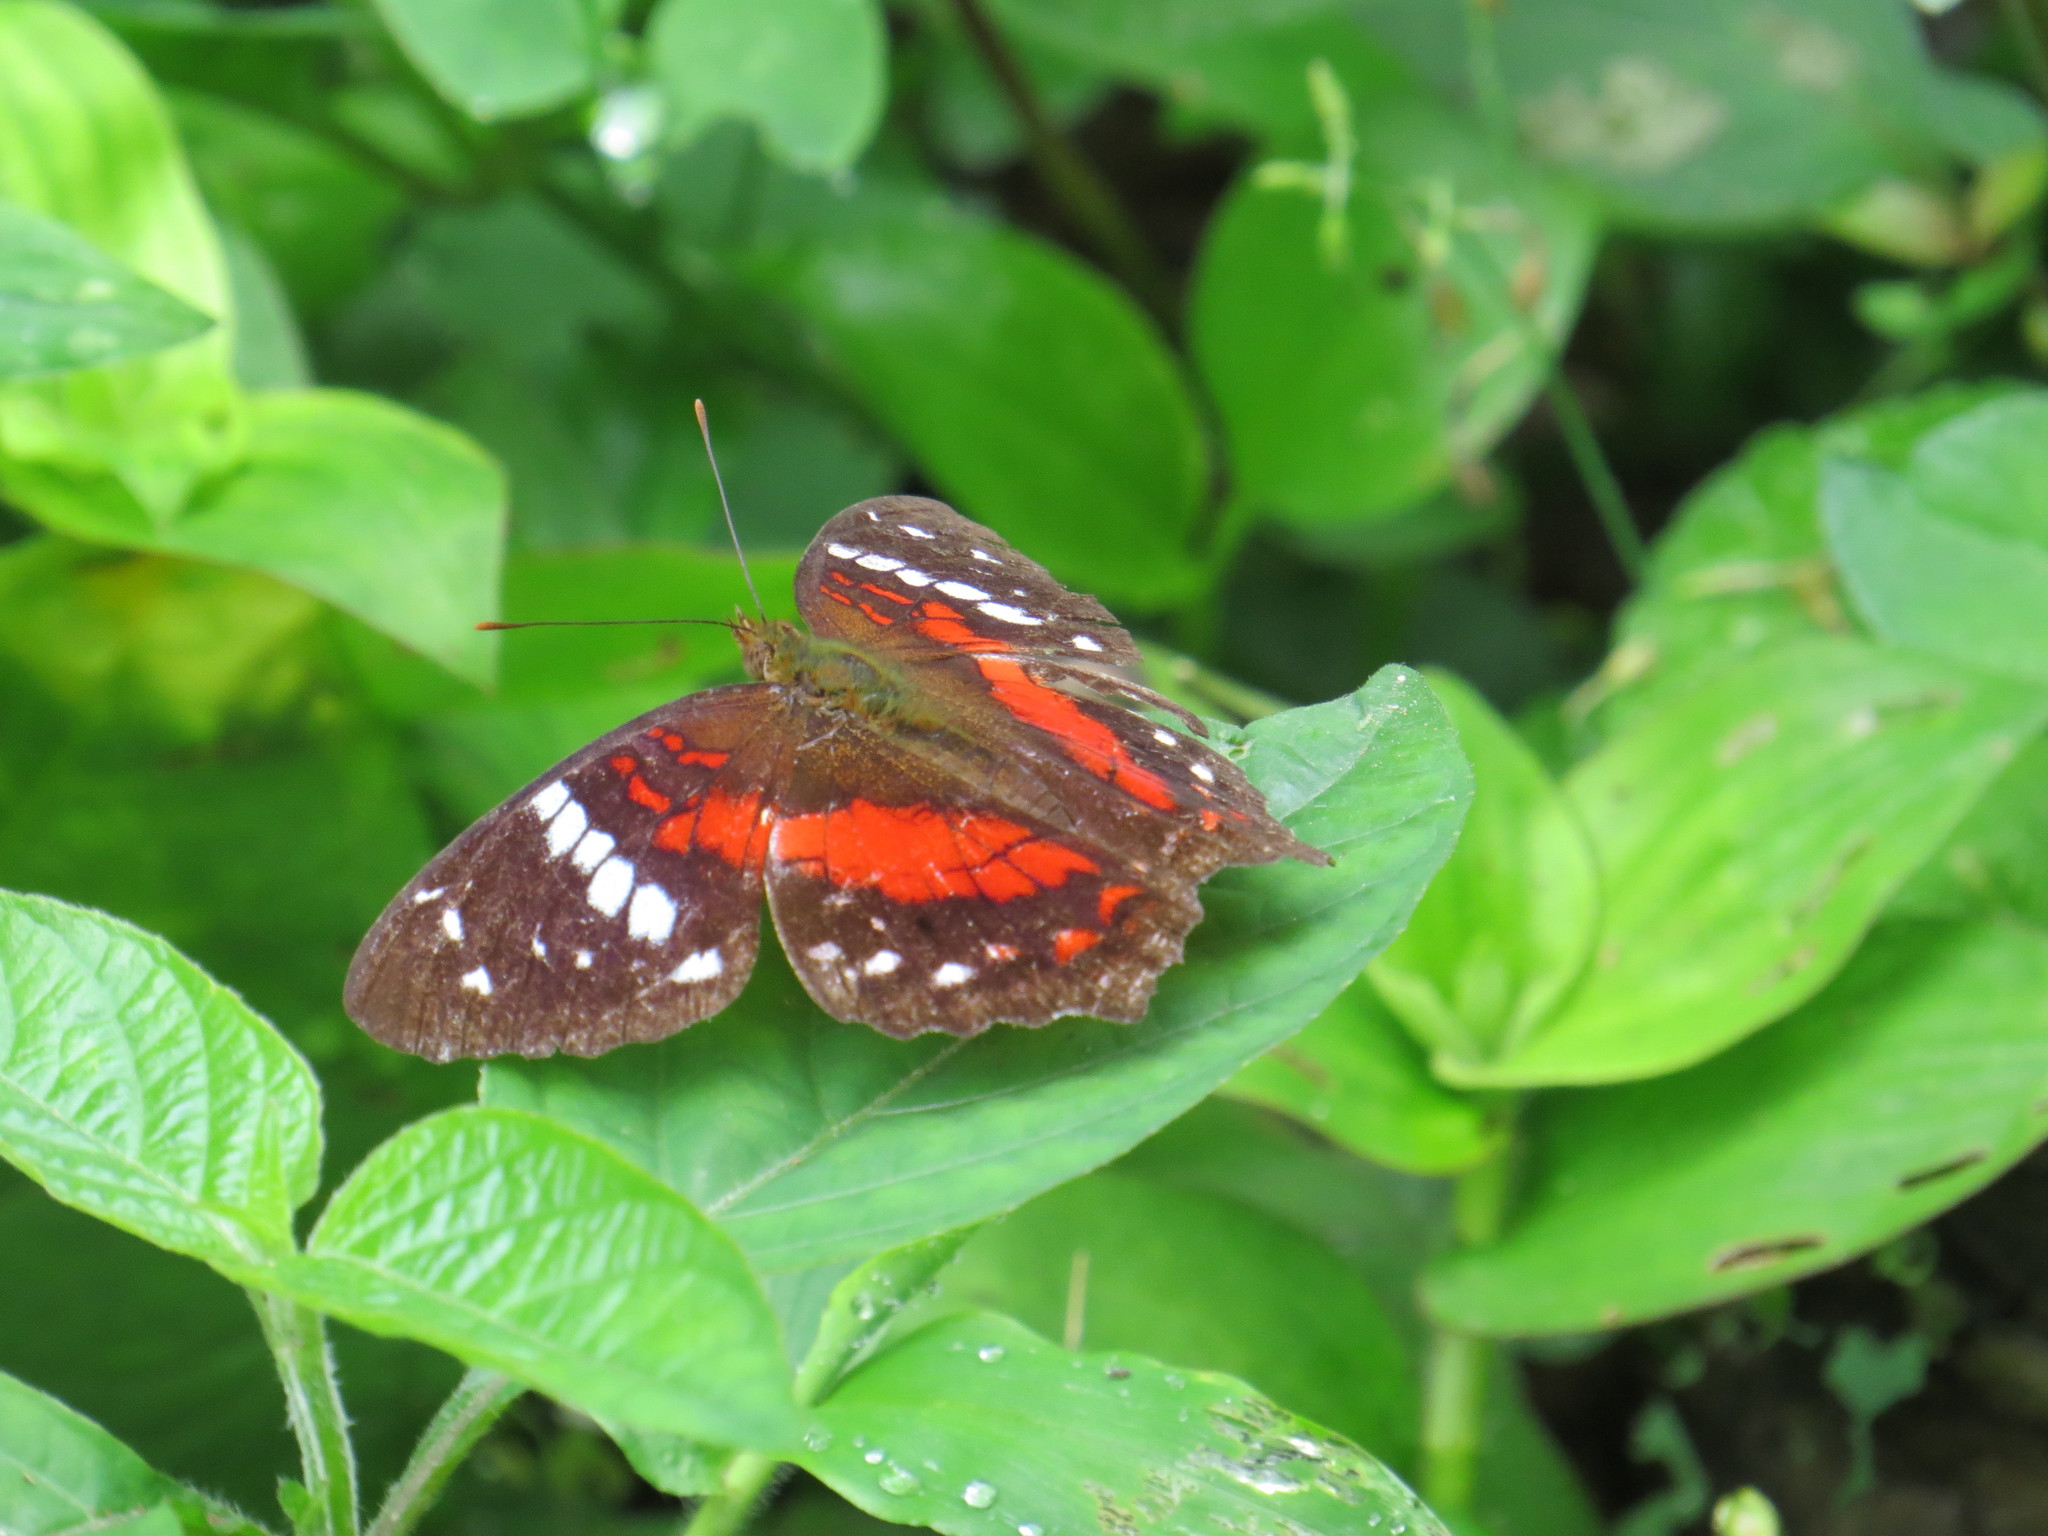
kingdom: Animalia
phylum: Arthropoda
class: Insecta
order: Lepidoptera
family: Nymphalidae
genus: Anartia
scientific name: Anartia amathea
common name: Red peacock
